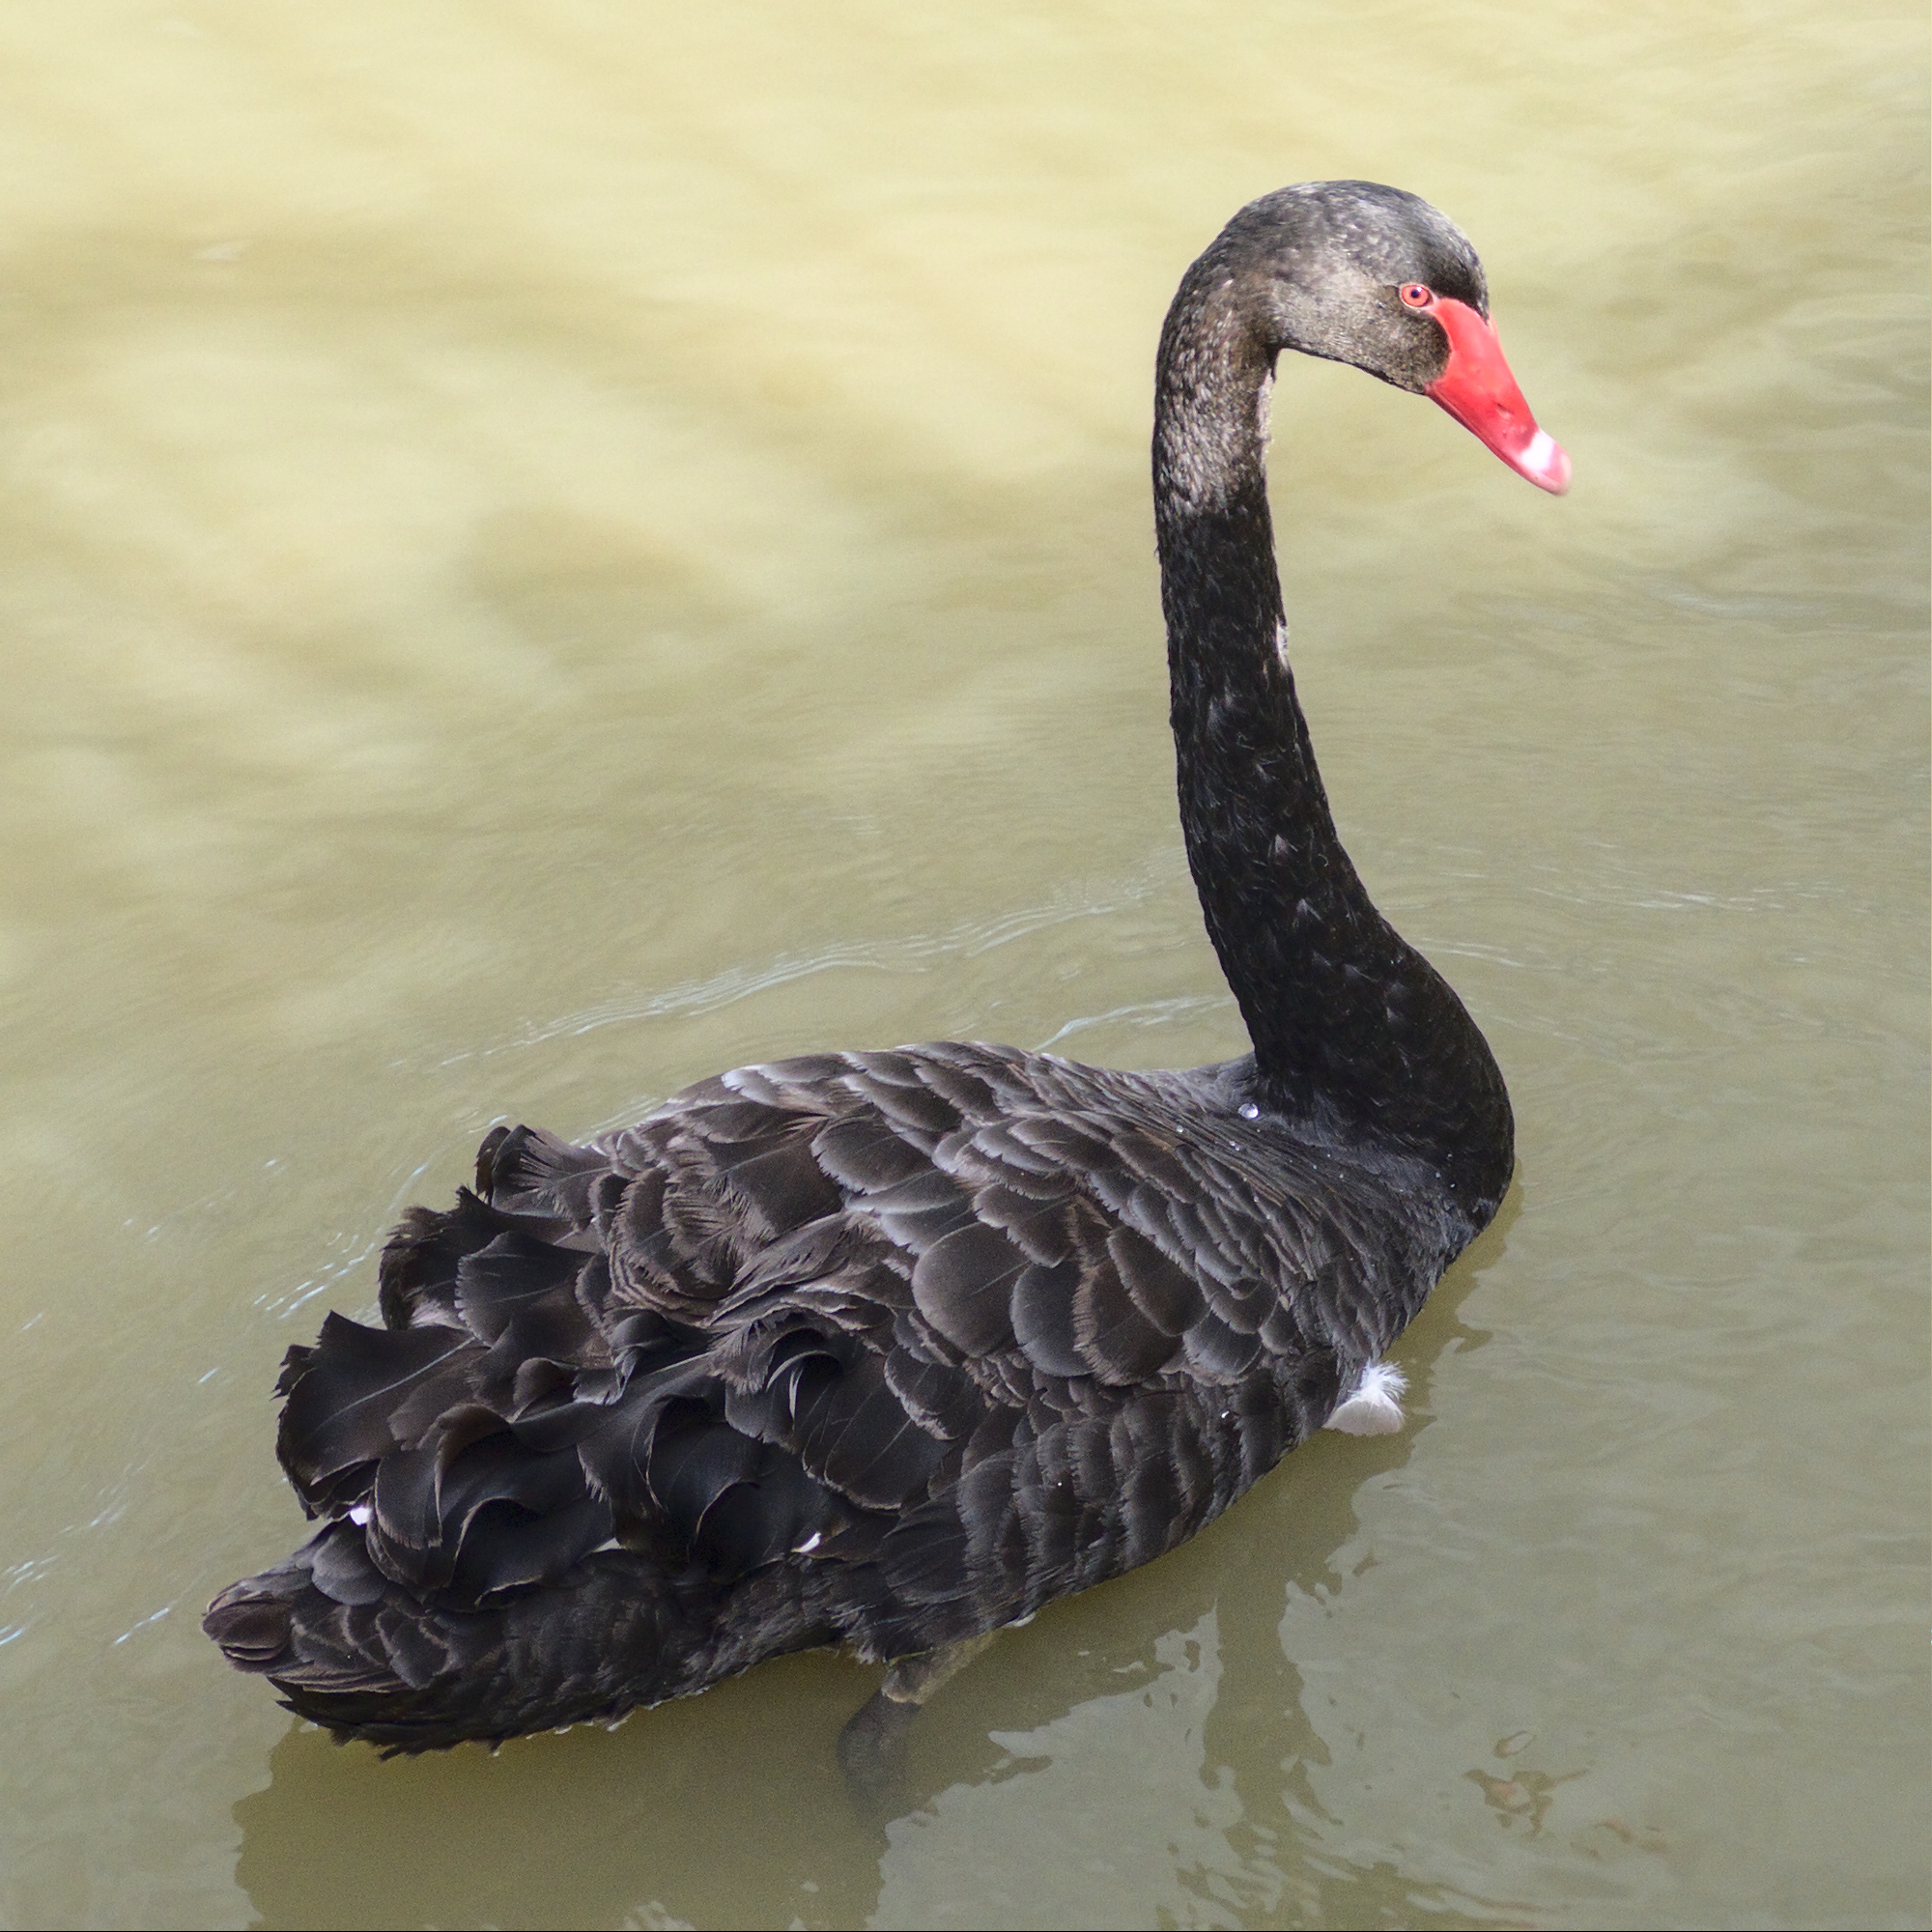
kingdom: Animalia
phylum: Chordata
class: Aves
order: Anseriformes
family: Anatidae
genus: Cygnus
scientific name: Cygnus atratus
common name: Black swan
